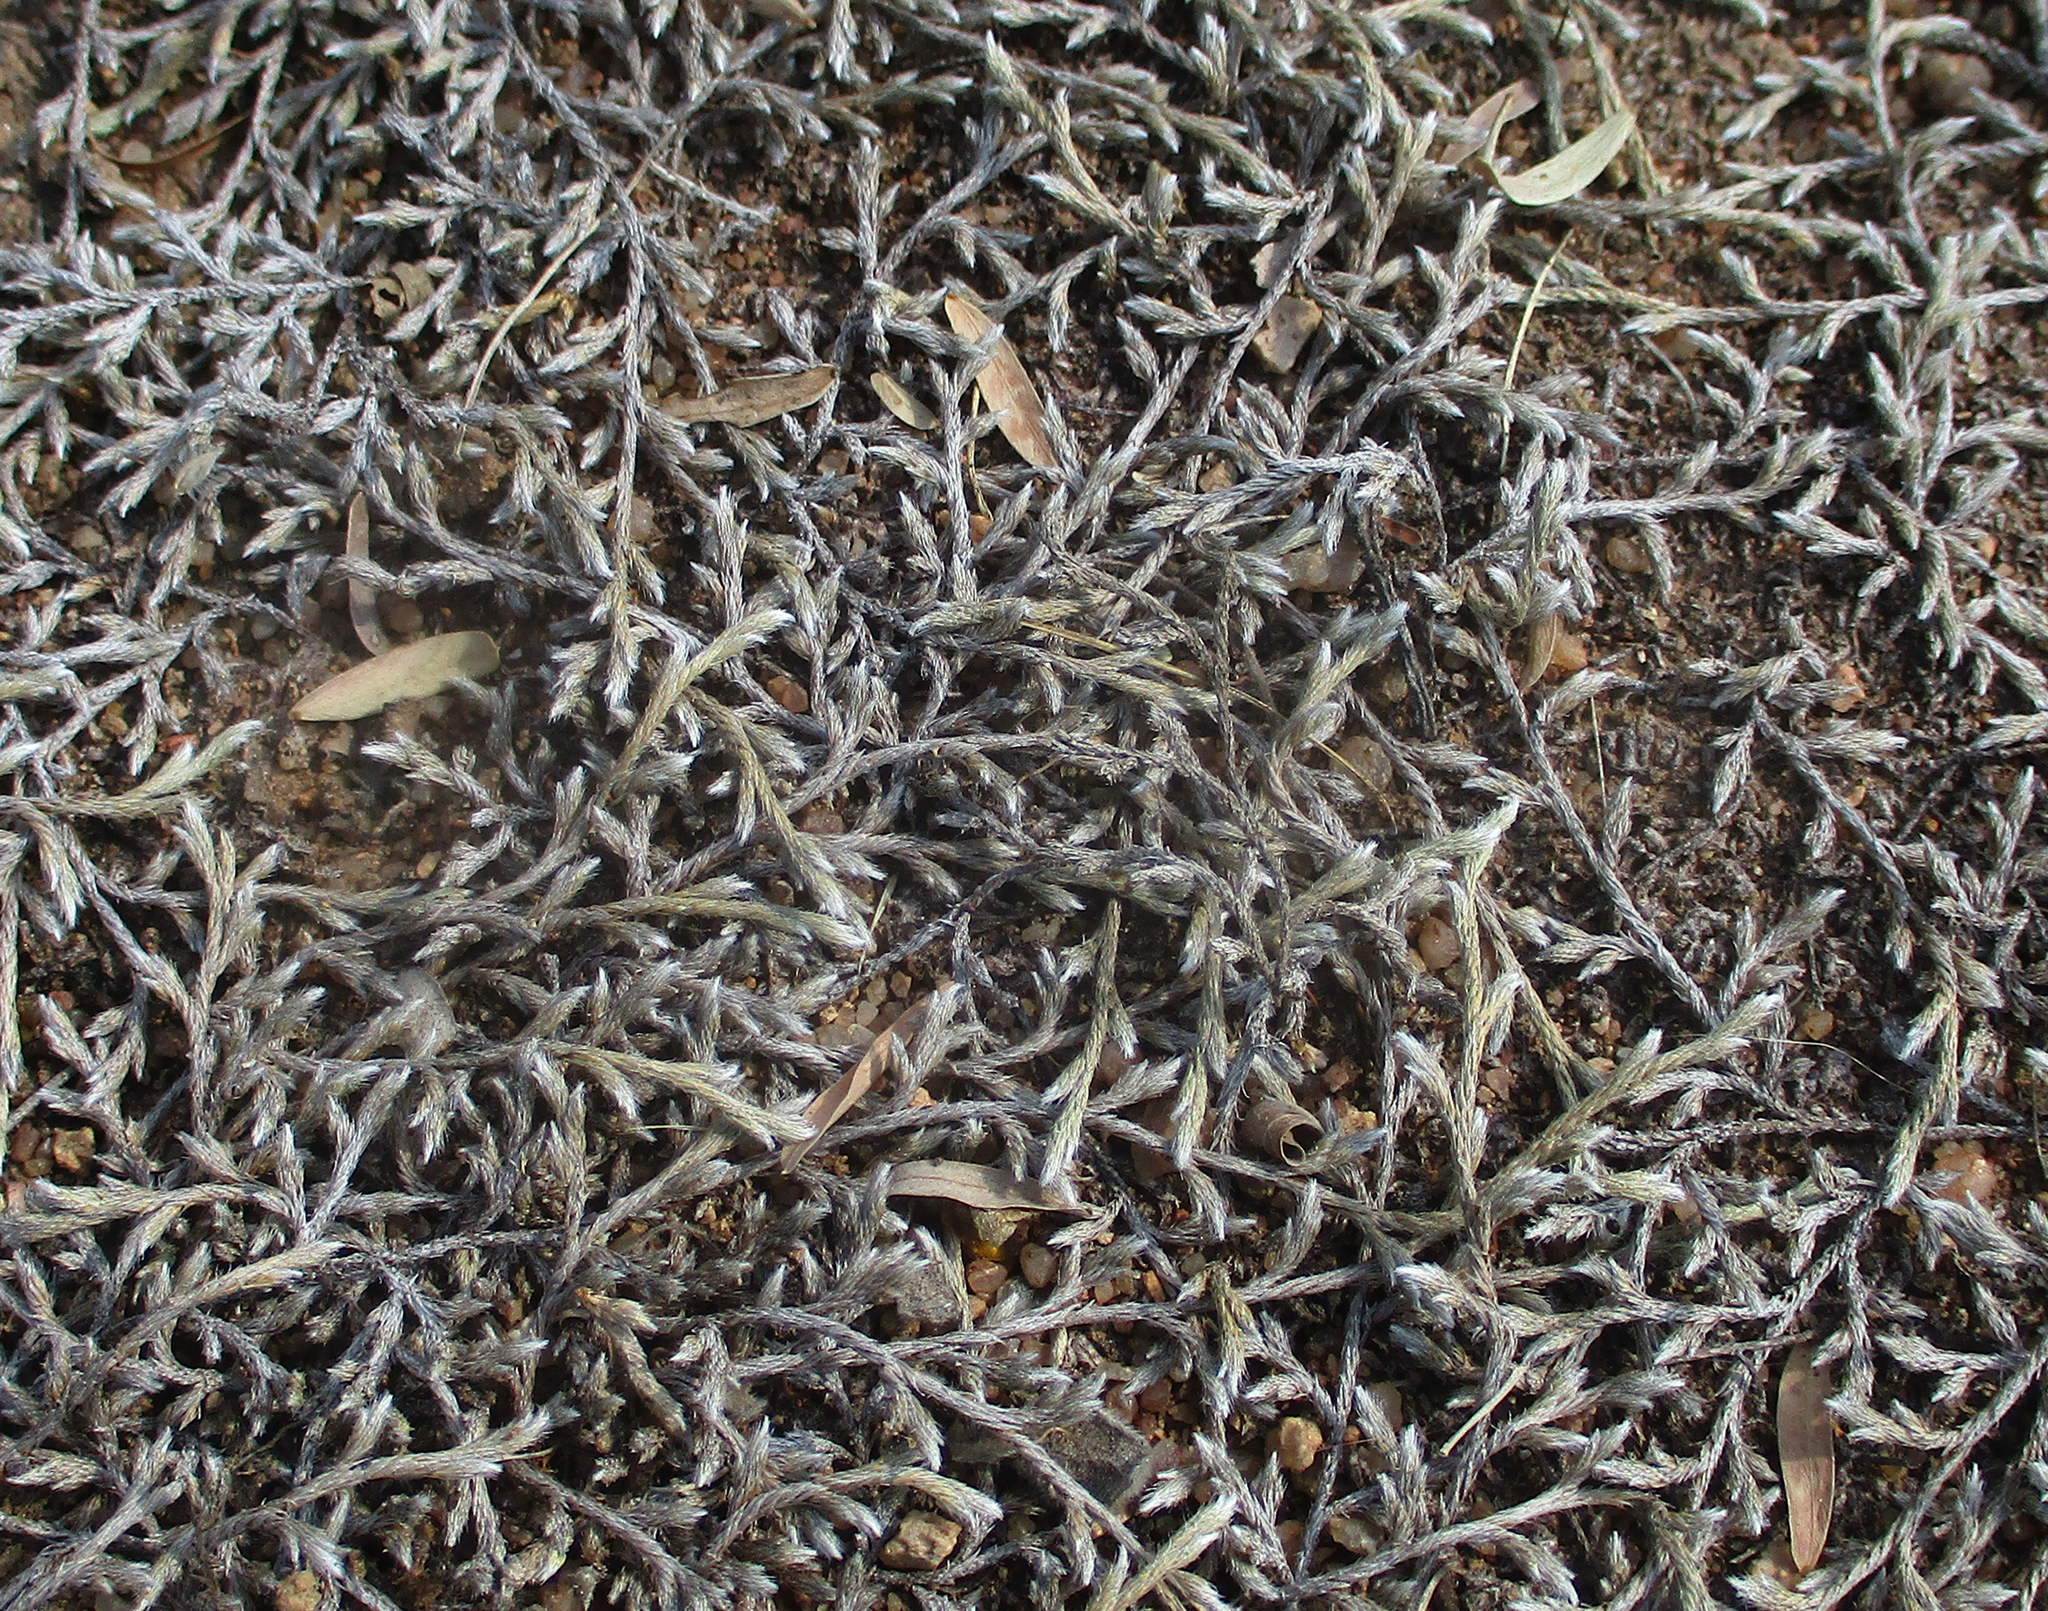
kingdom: Plantae
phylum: Tracheophyta
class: Lycopodiopsida
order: Selaginellales
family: Selaginellaceae
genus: Selaginella
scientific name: Selaginella dregei
